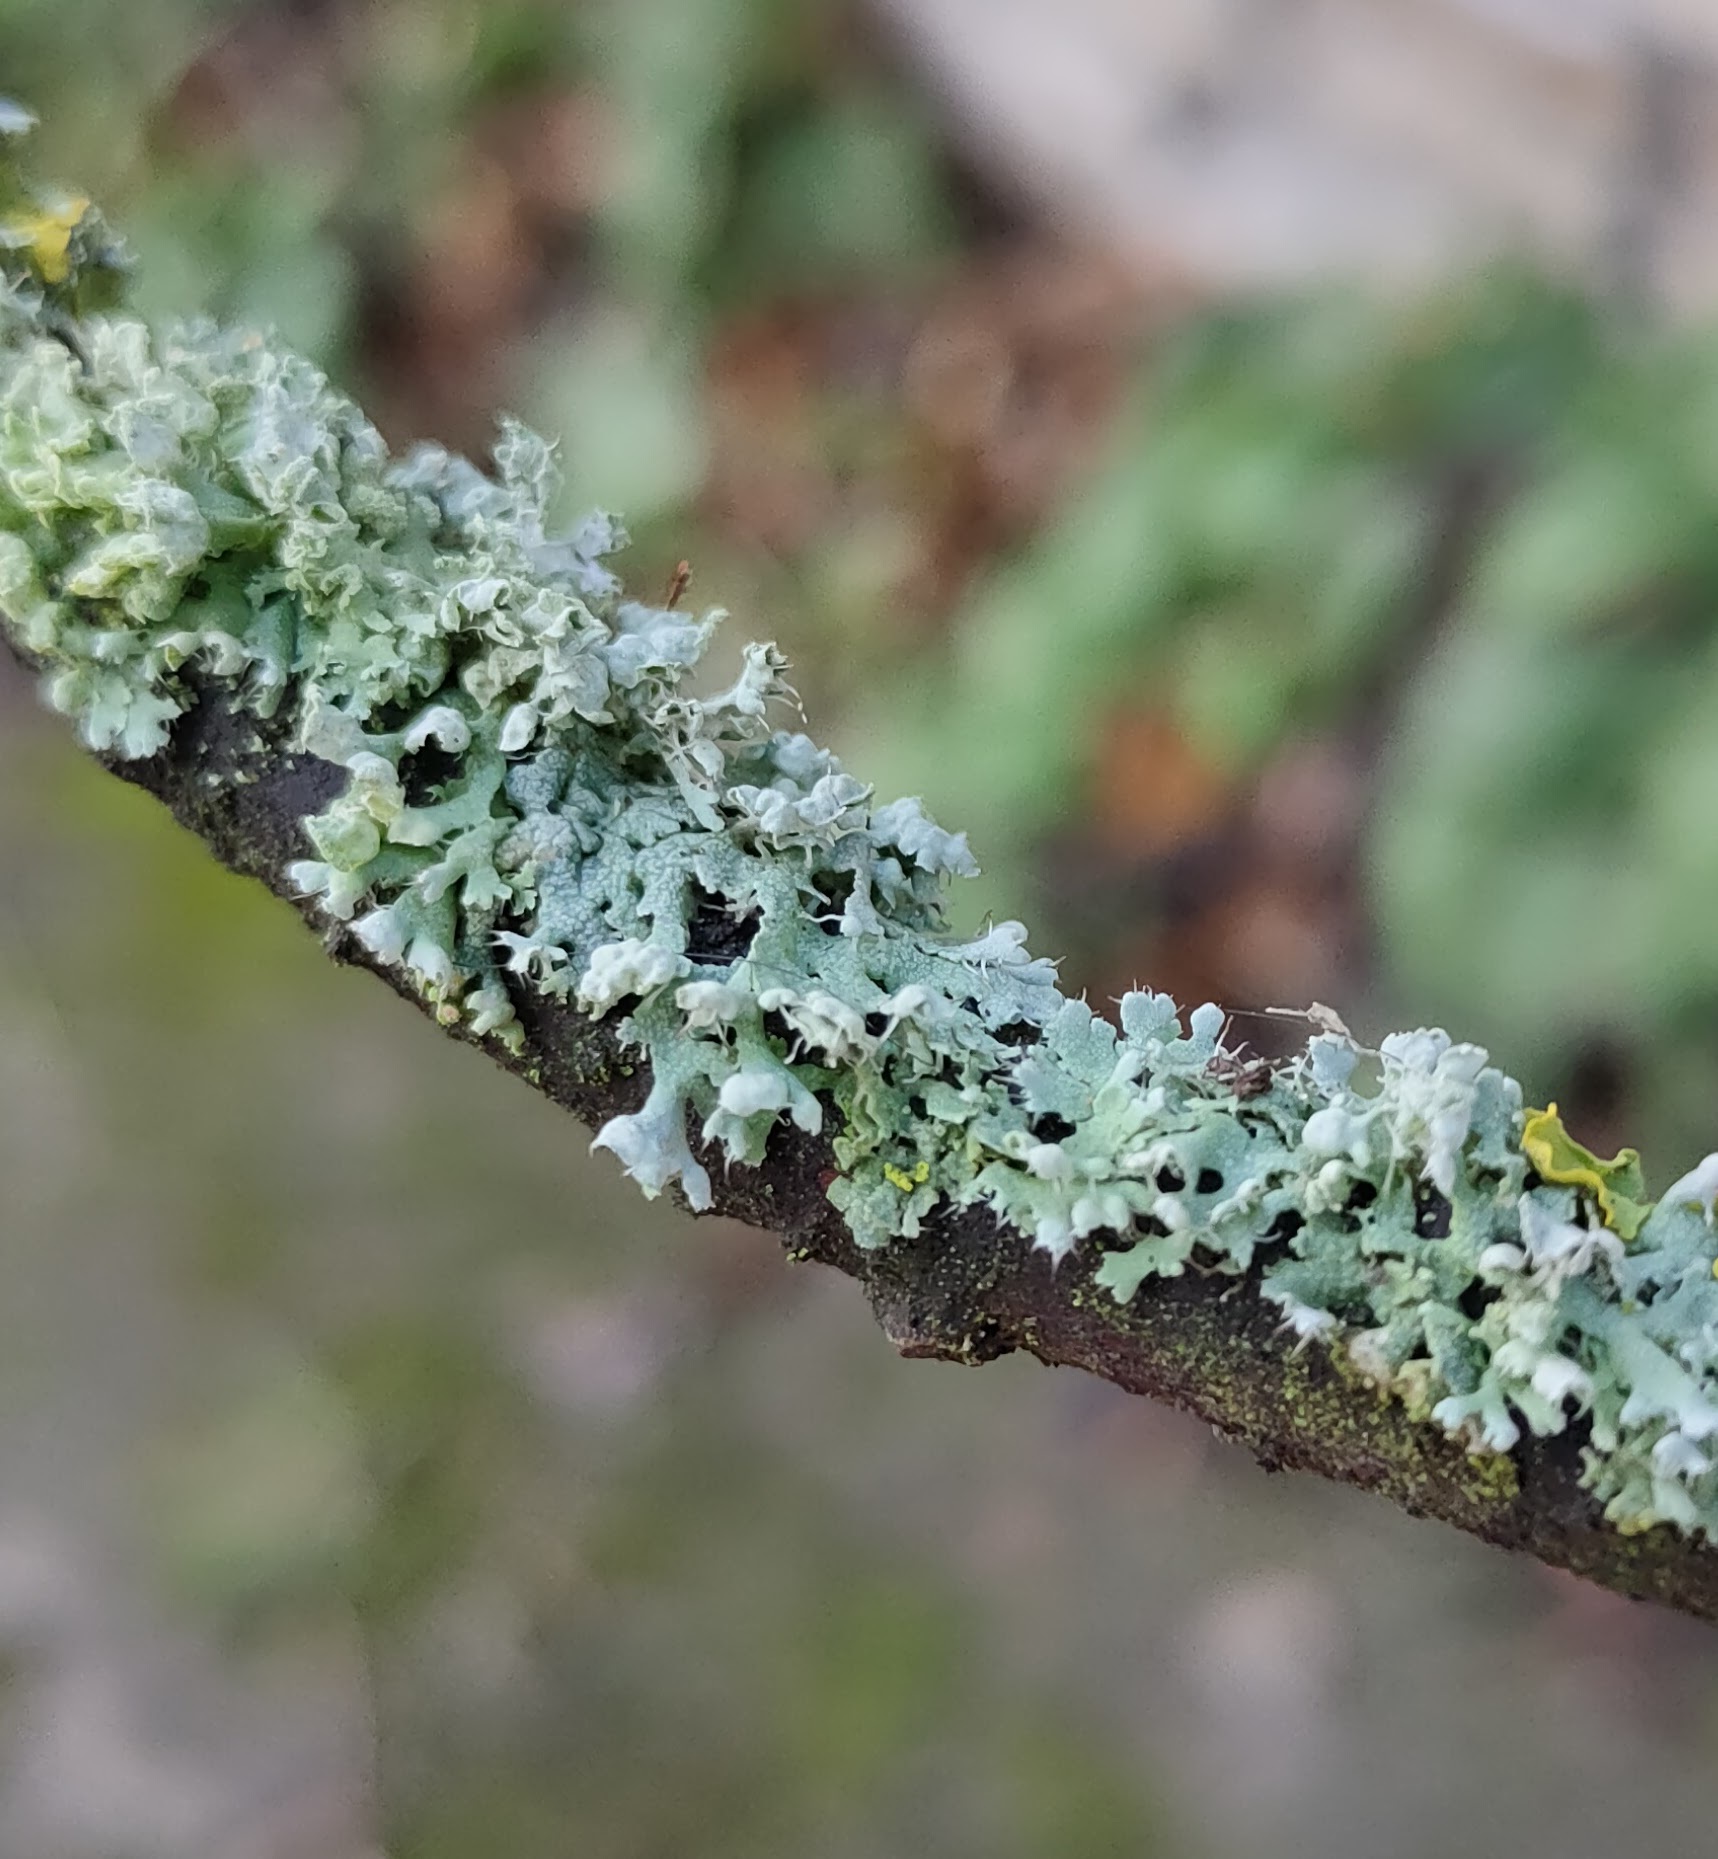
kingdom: Fungi
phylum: Ascomycota
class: Lecanoromycetes
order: Caliciales
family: Physciaceae
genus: Physcia
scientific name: Physcia adscendens
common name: Hooded rosette lichen
